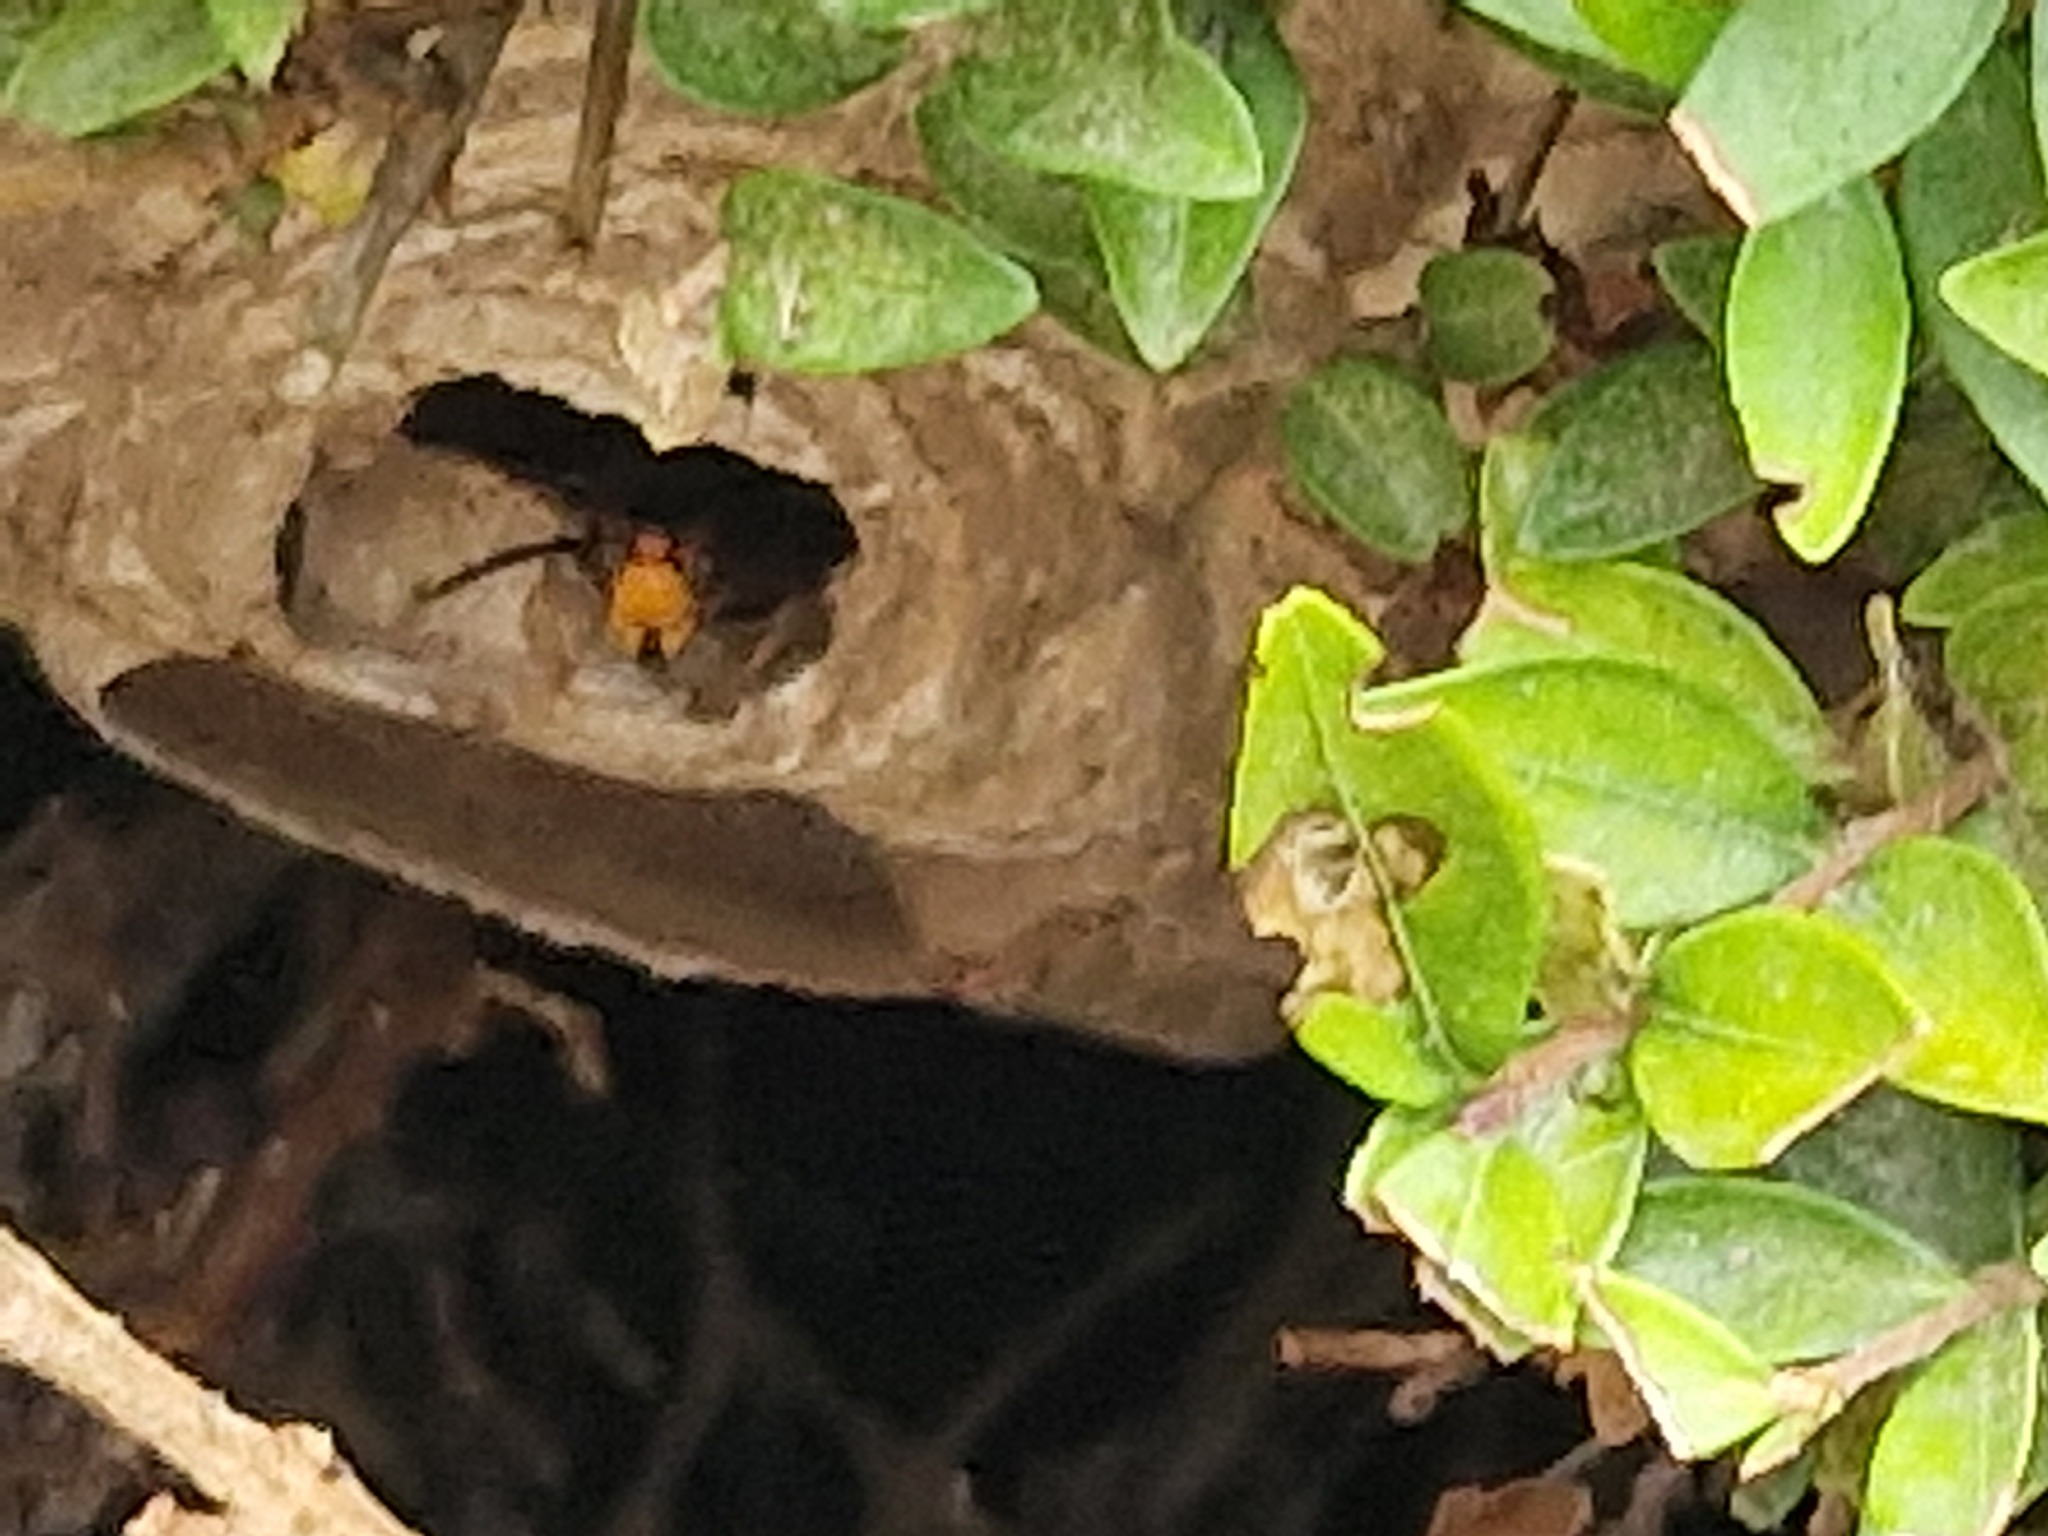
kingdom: Animalia
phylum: Arthropoda
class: Insecta
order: Hymenoptera
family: Vespidae
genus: Vespa
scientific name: Vespa velutina
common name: Asian hornet
